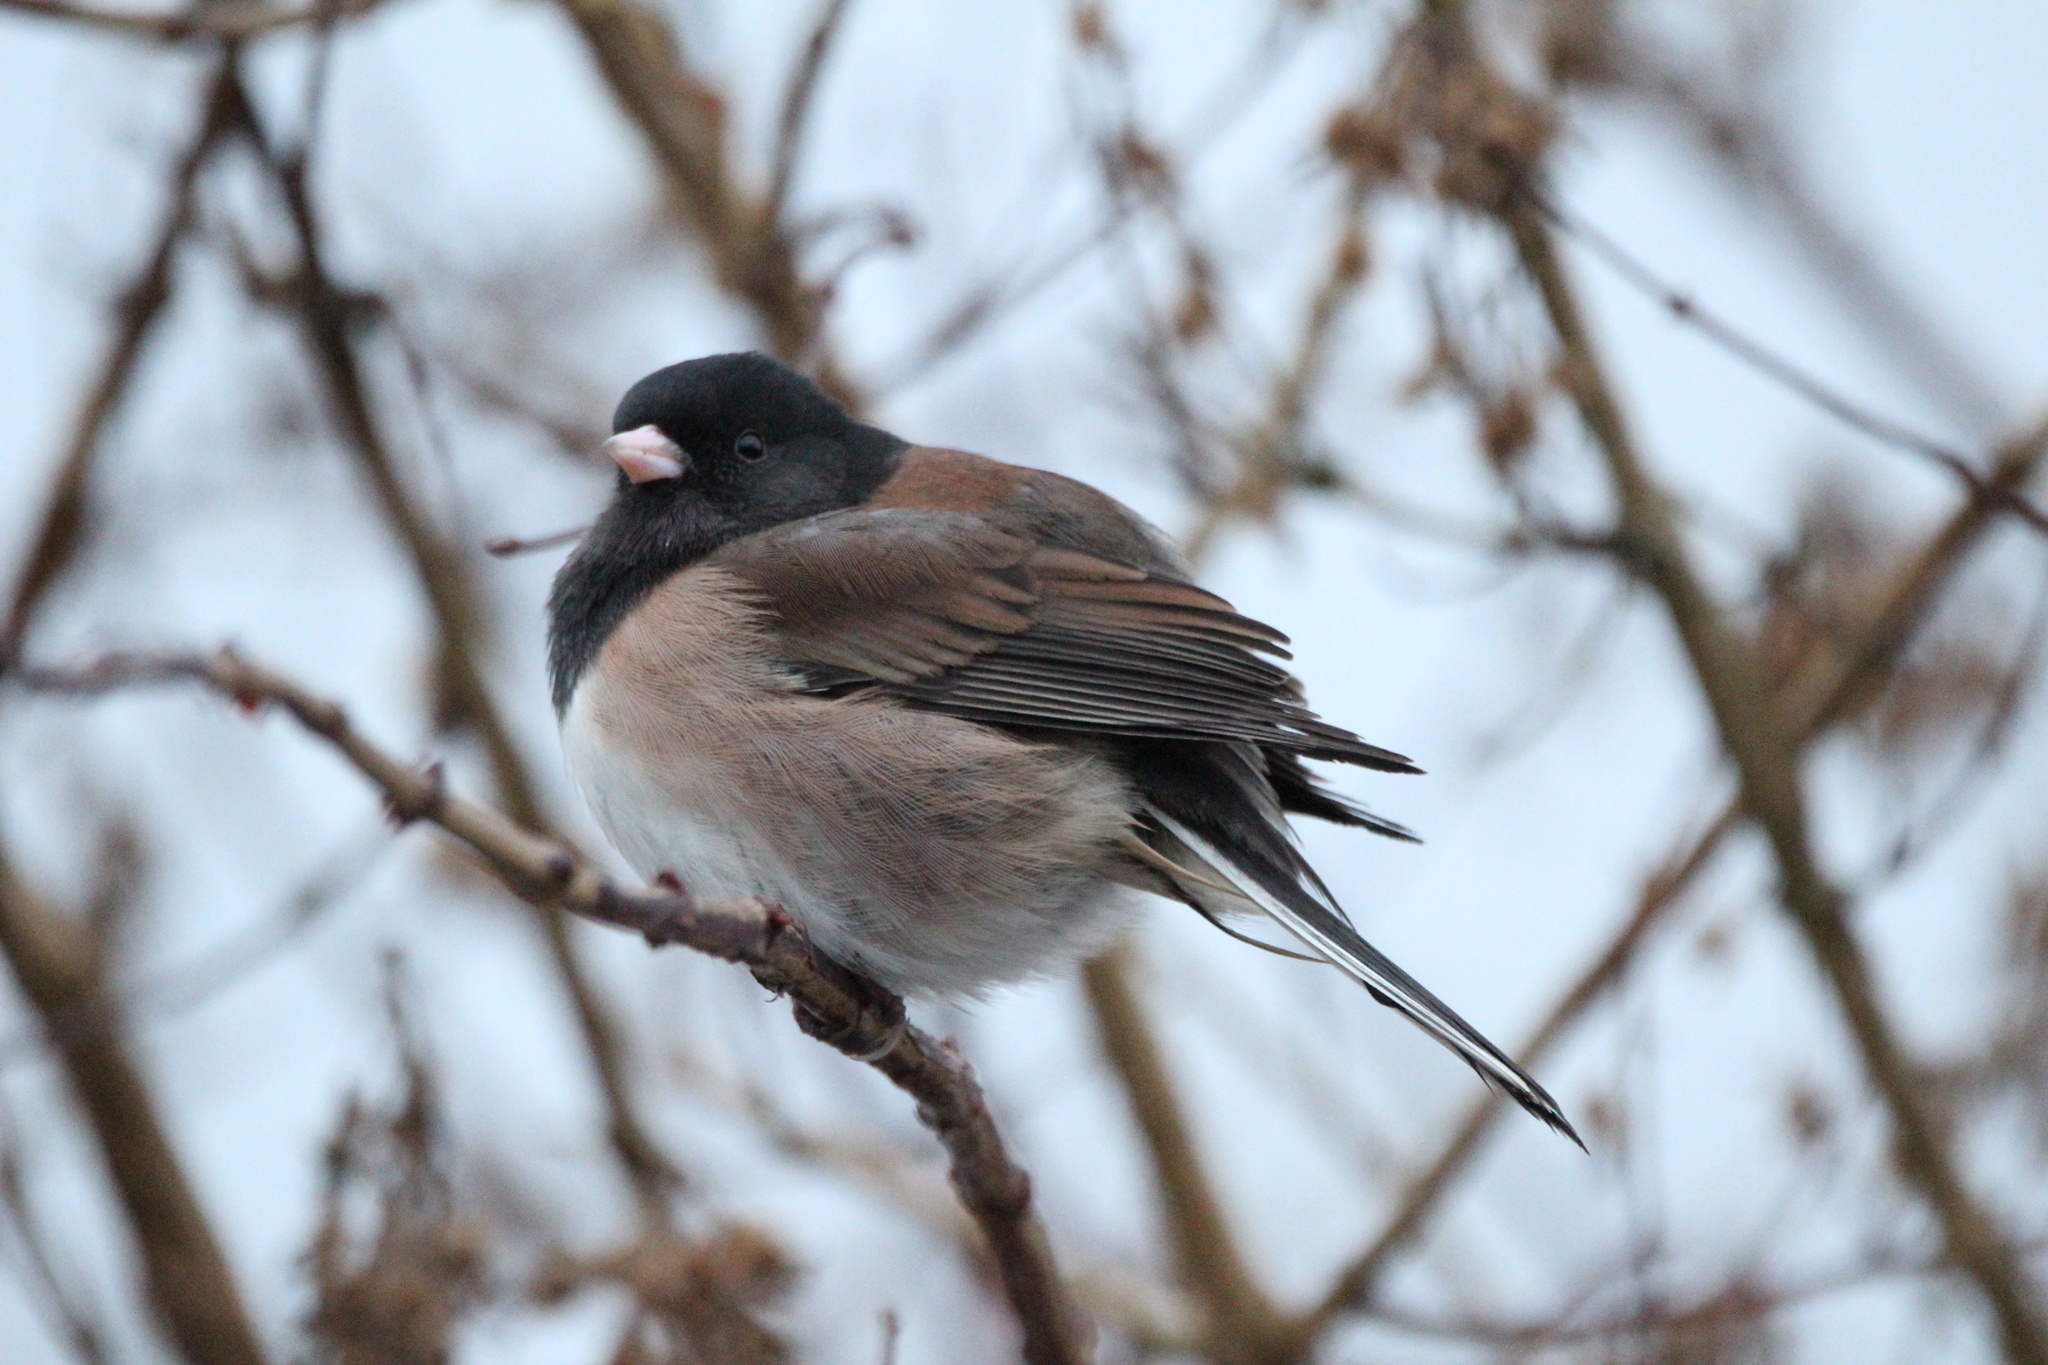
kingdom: Animalia
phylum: Chordata
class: Aves
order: Passeriformes
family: Passerellidae
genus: Junco
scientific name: Junco hyemalis
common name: Dark-eyed junco
